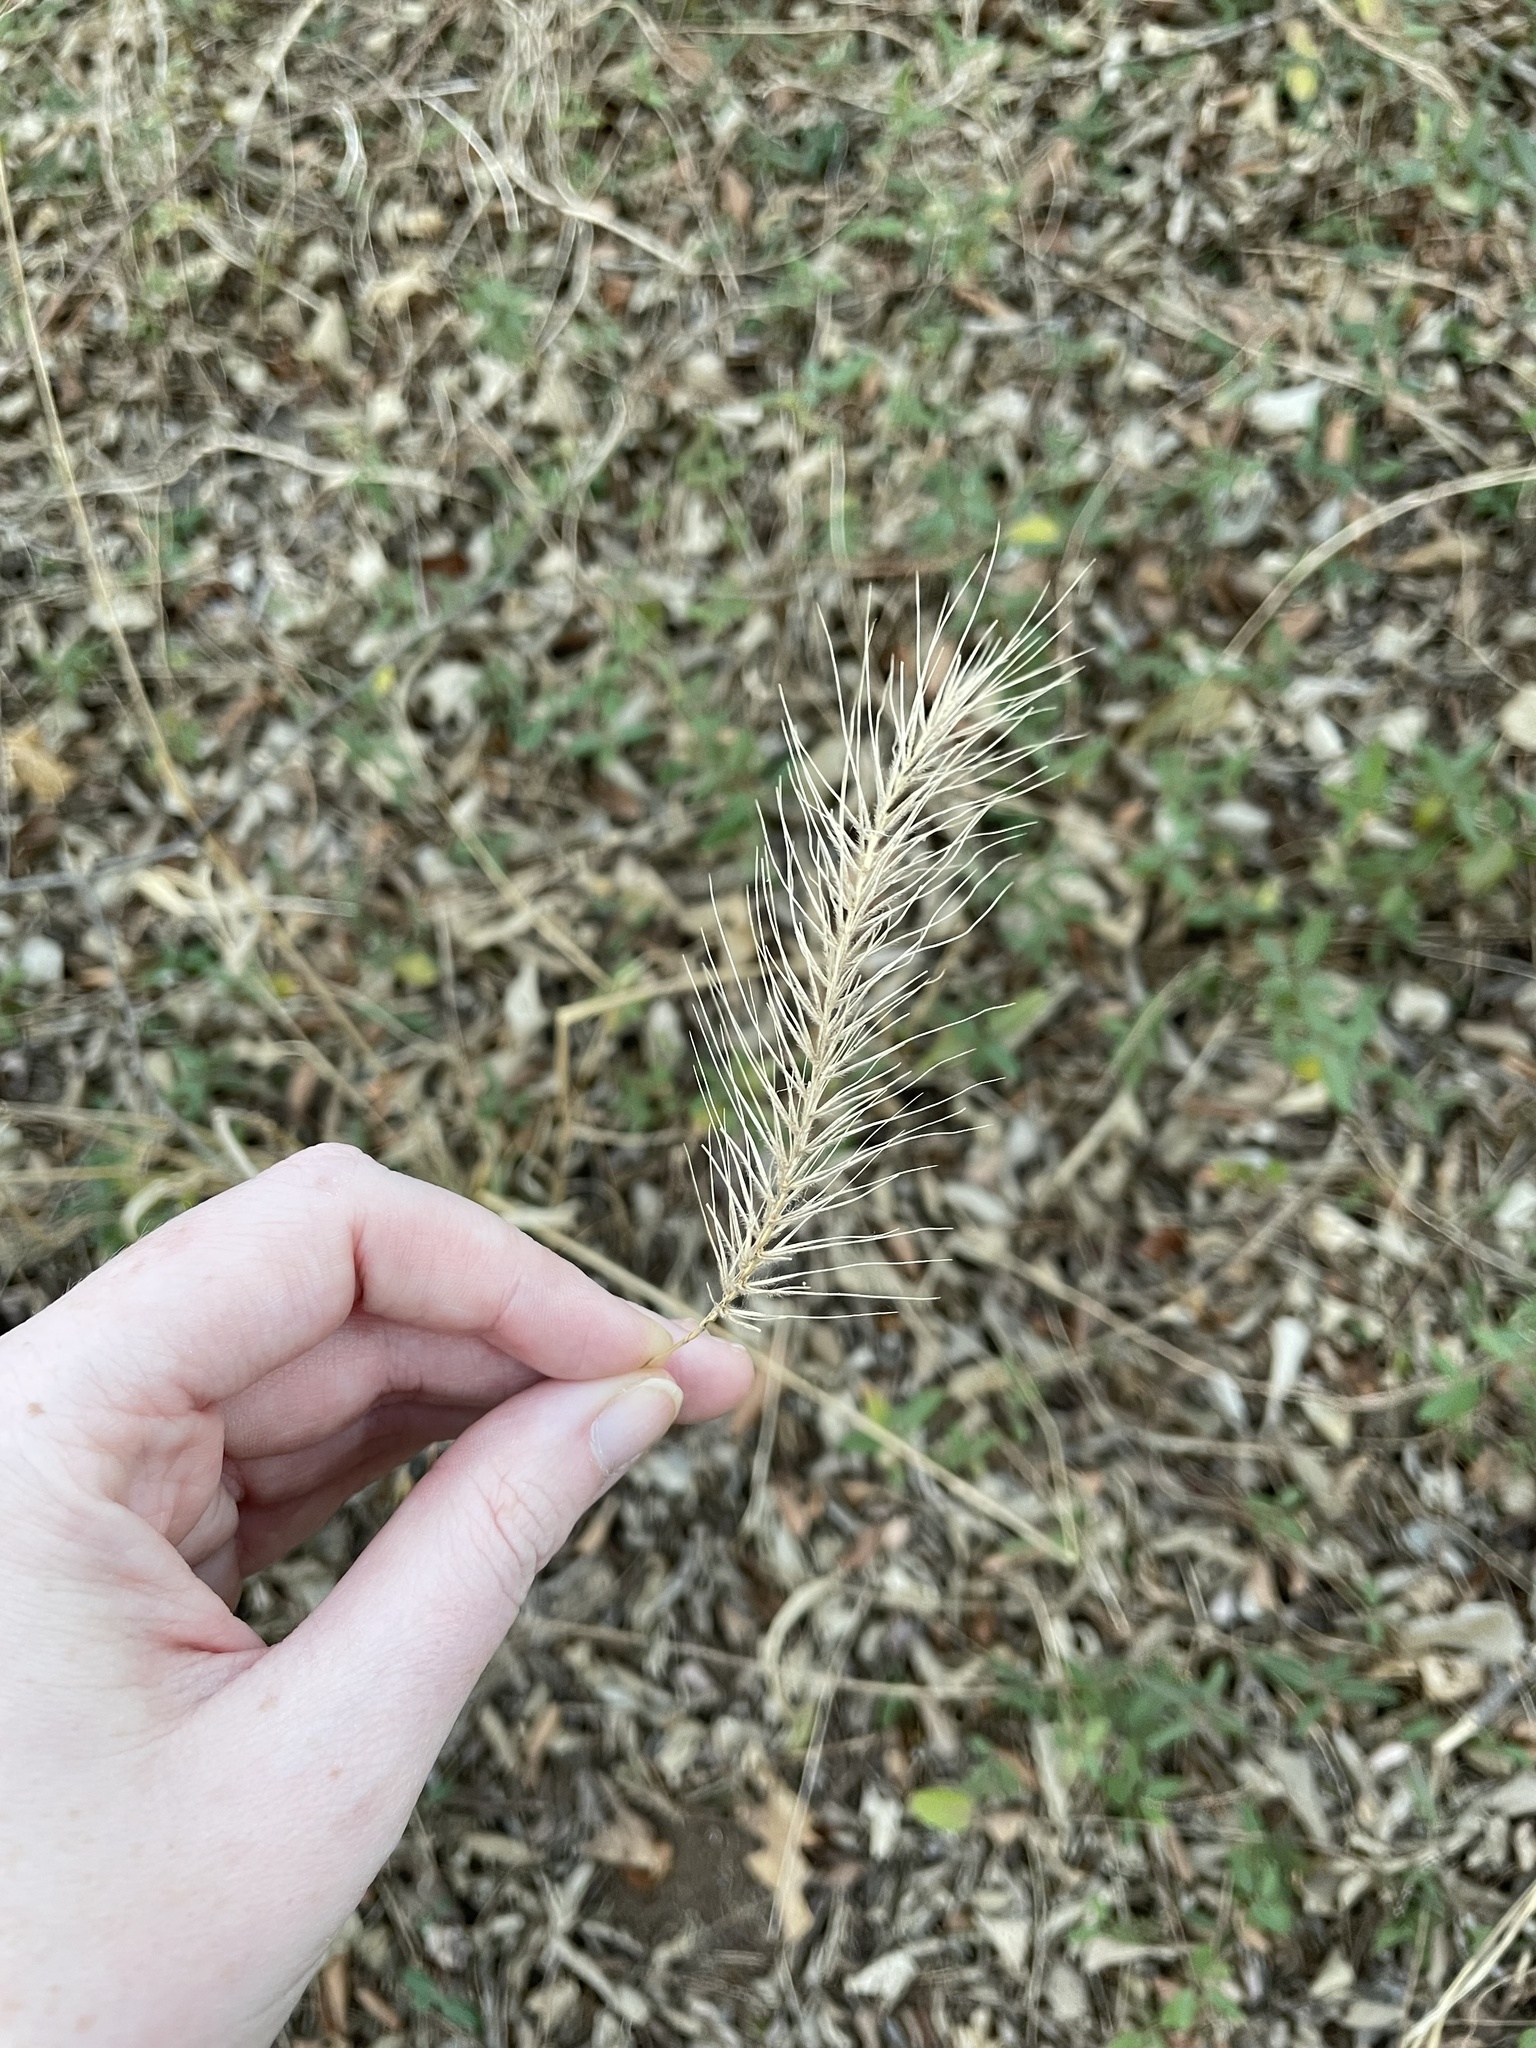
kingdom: Plantae
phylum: Tracheophyta
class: Liliopsida
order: Poales
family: Poaceae
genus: Elymus
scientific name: Elymus villosus
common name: Downy wild rye
